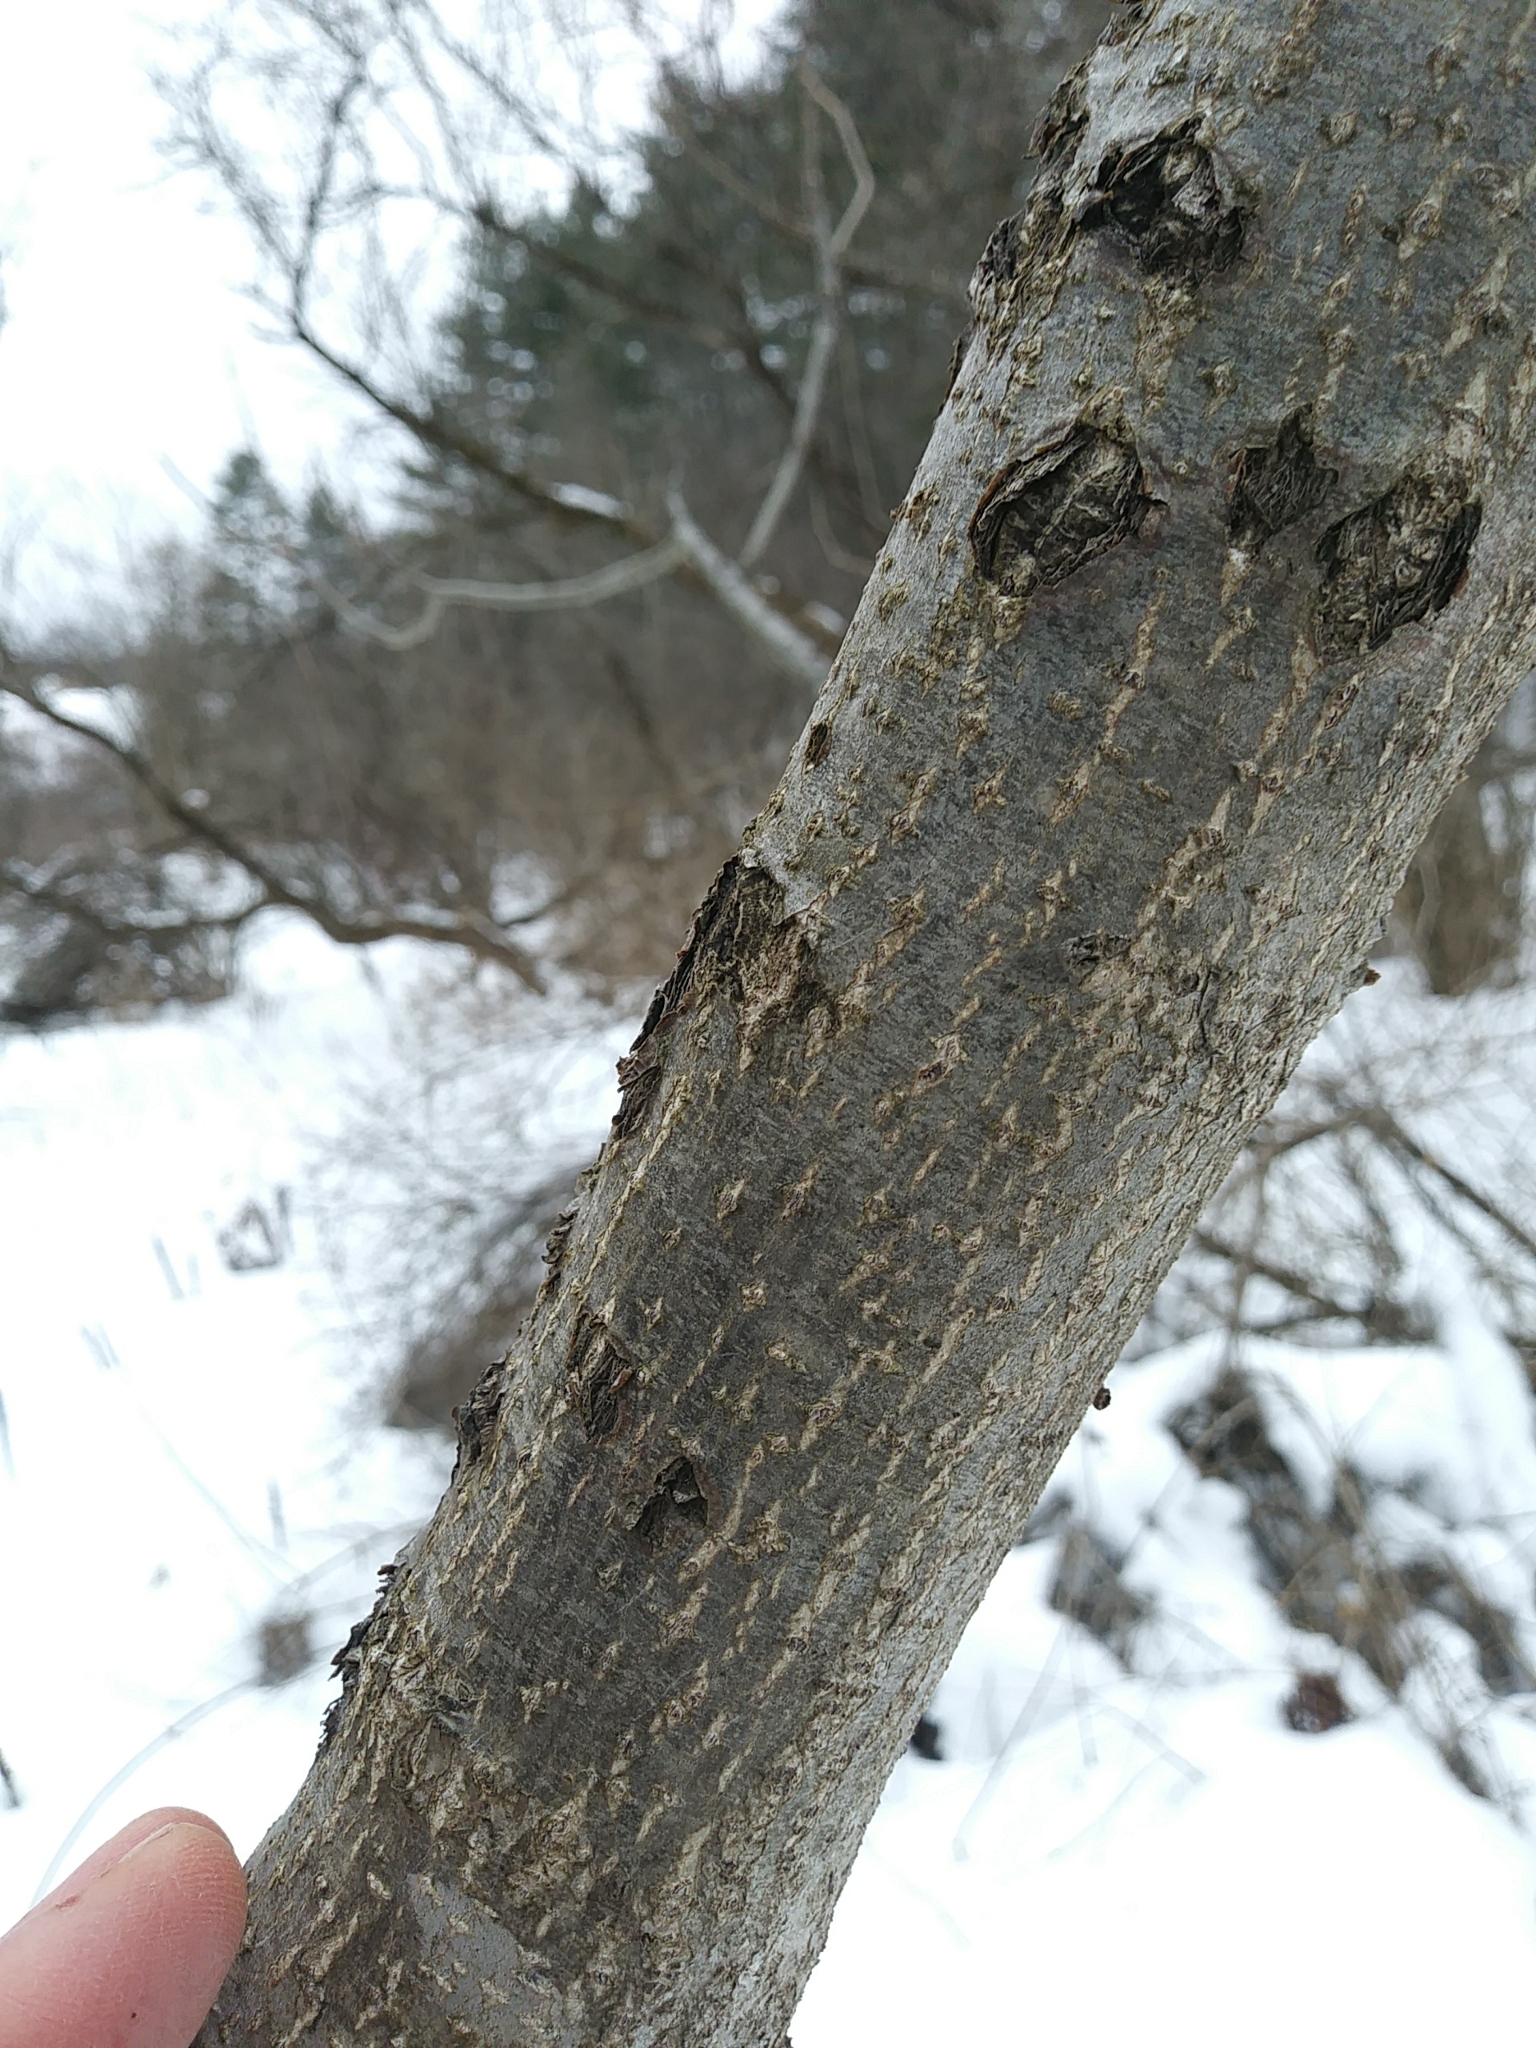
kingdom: Plantae
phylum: Tracheophyta
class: Magnoliopsida
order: Fagales
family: Juglandaceae
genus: Juglans
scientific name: Juglans cinerea
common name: Butternut
